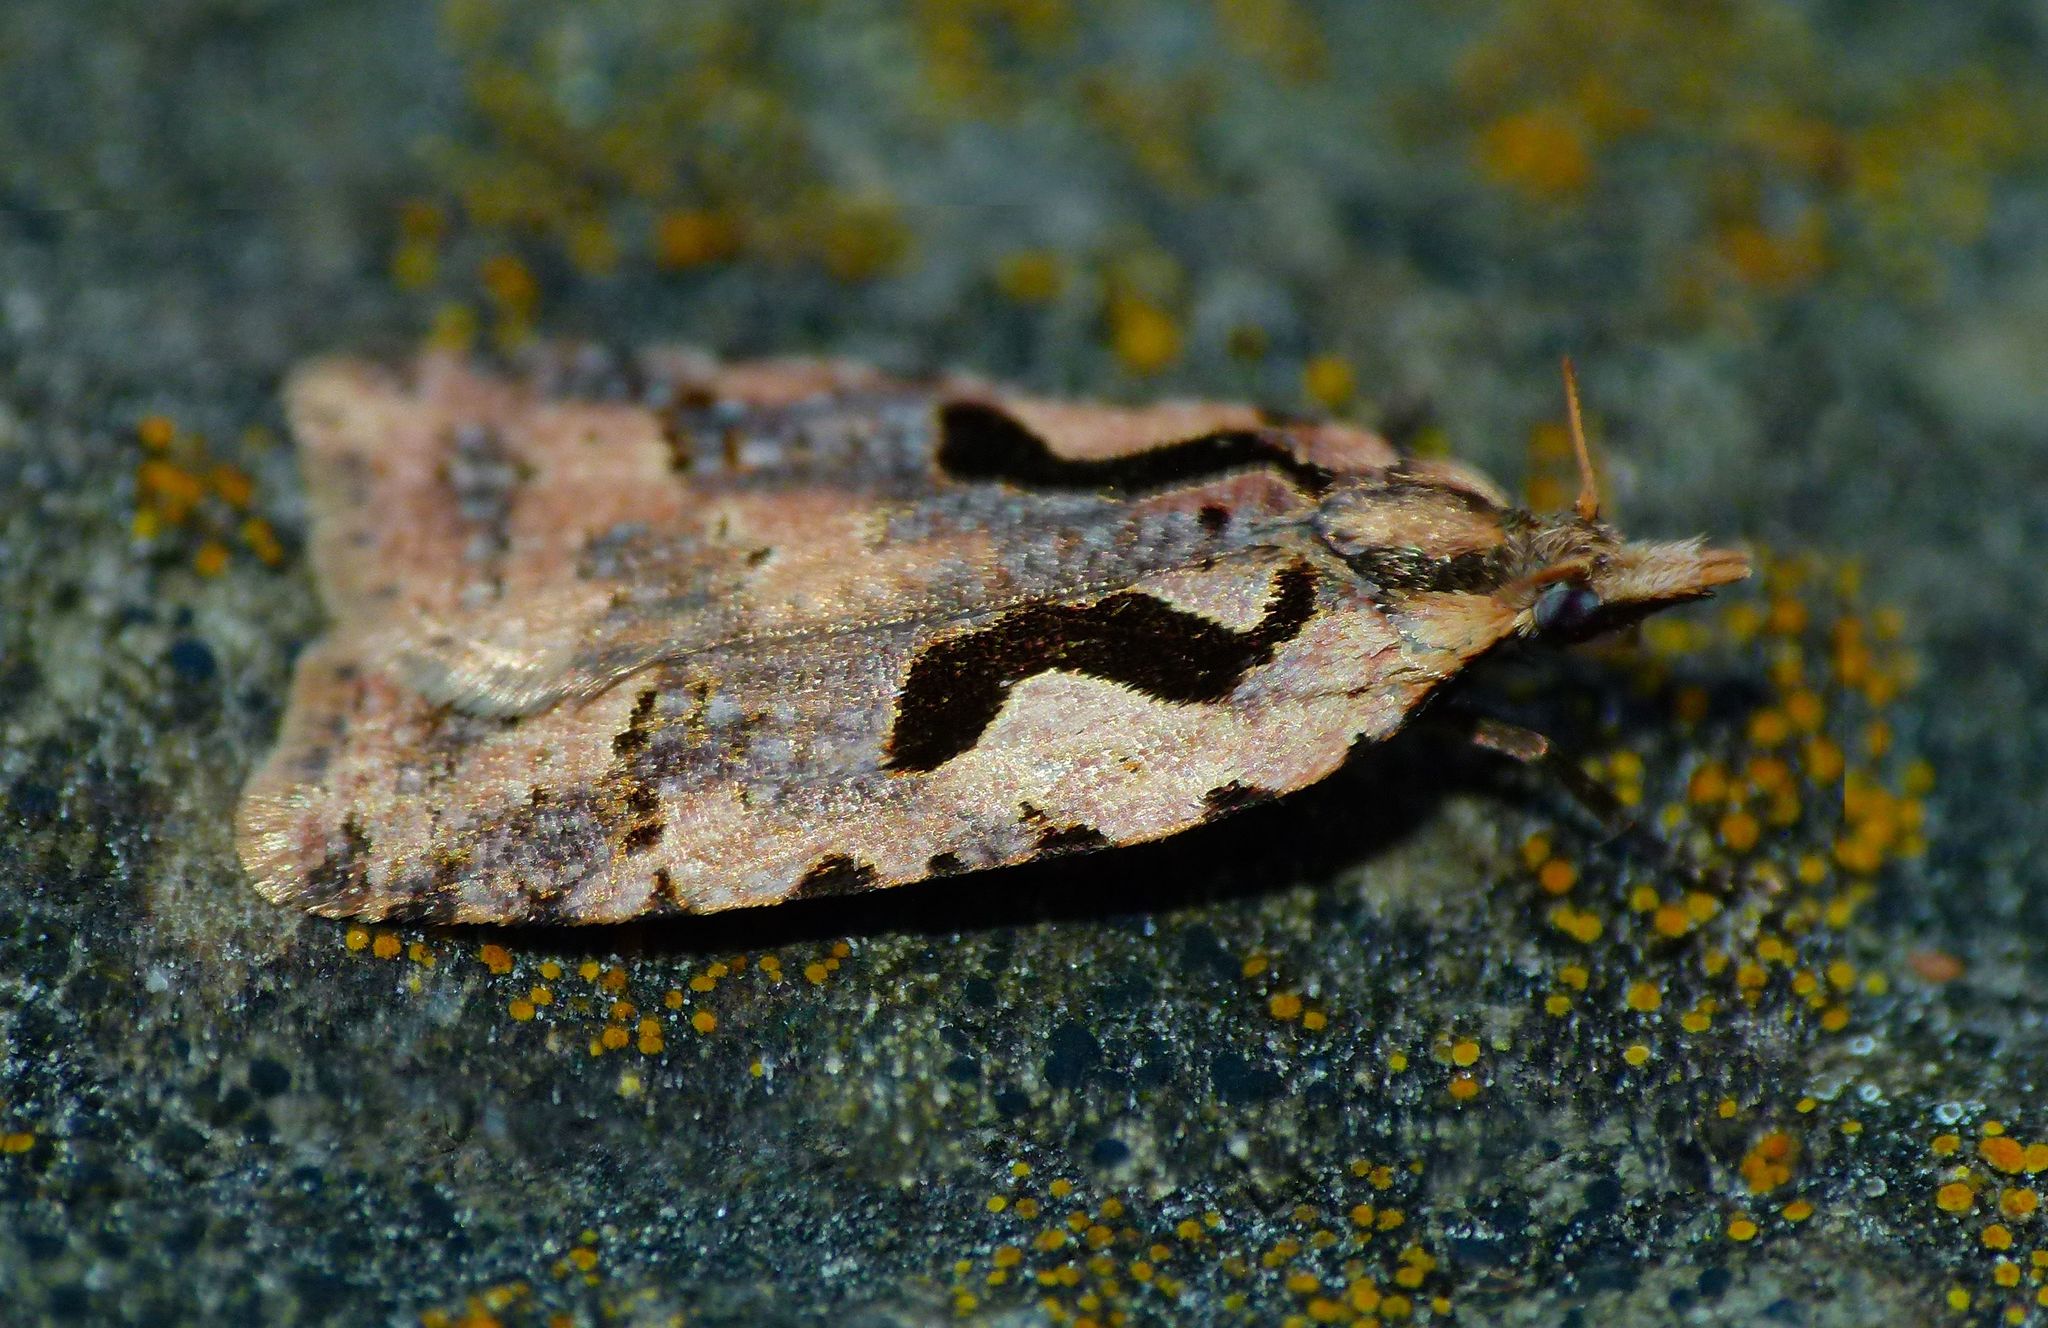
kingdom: Animalia
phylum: Arthropoda
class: Insecta
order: Lepidoptera
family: Tortricidae
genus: Cnephasia
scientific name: Cnephasia jactatana
